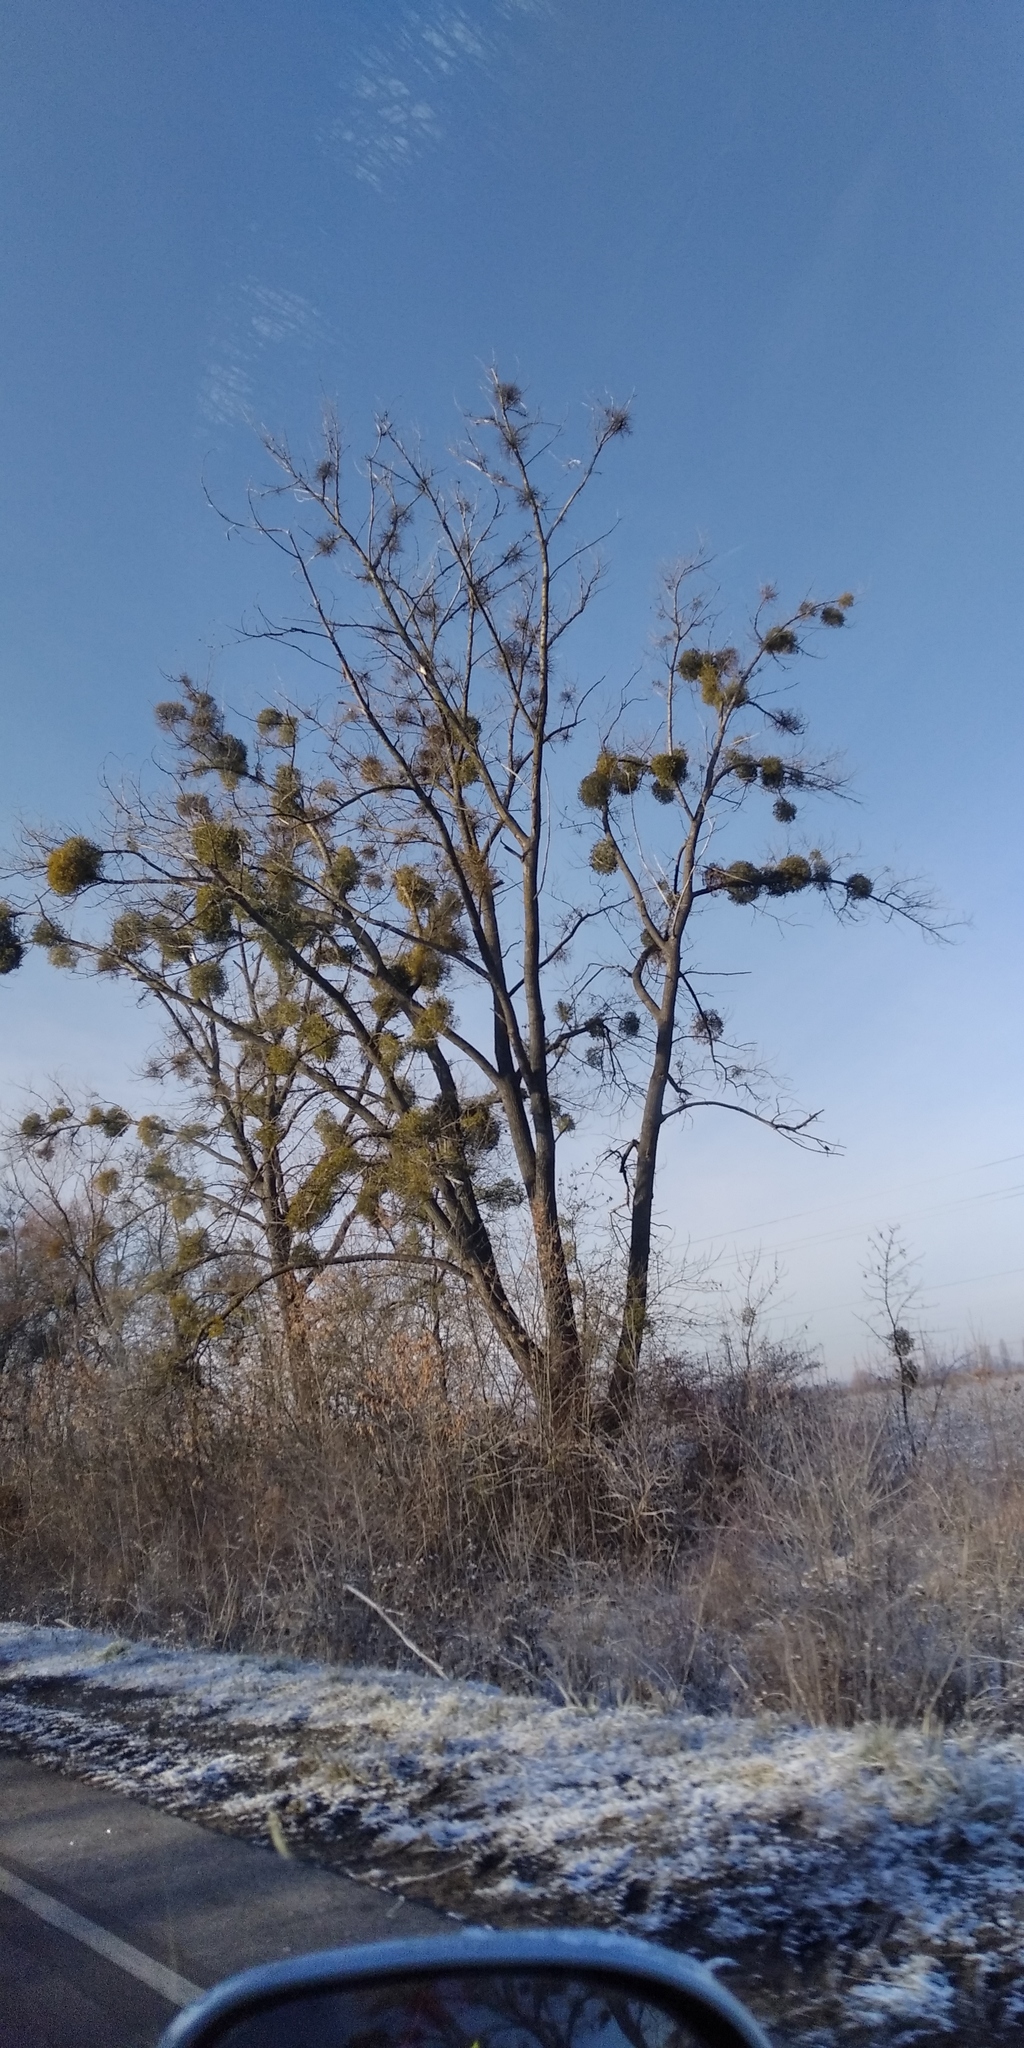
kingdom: Plantae
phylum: Tracheophyta
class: Magnoliopsida
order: Santalales
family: Viscaceae
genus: Viscum
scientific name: Viscum album
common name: Mistletoe
